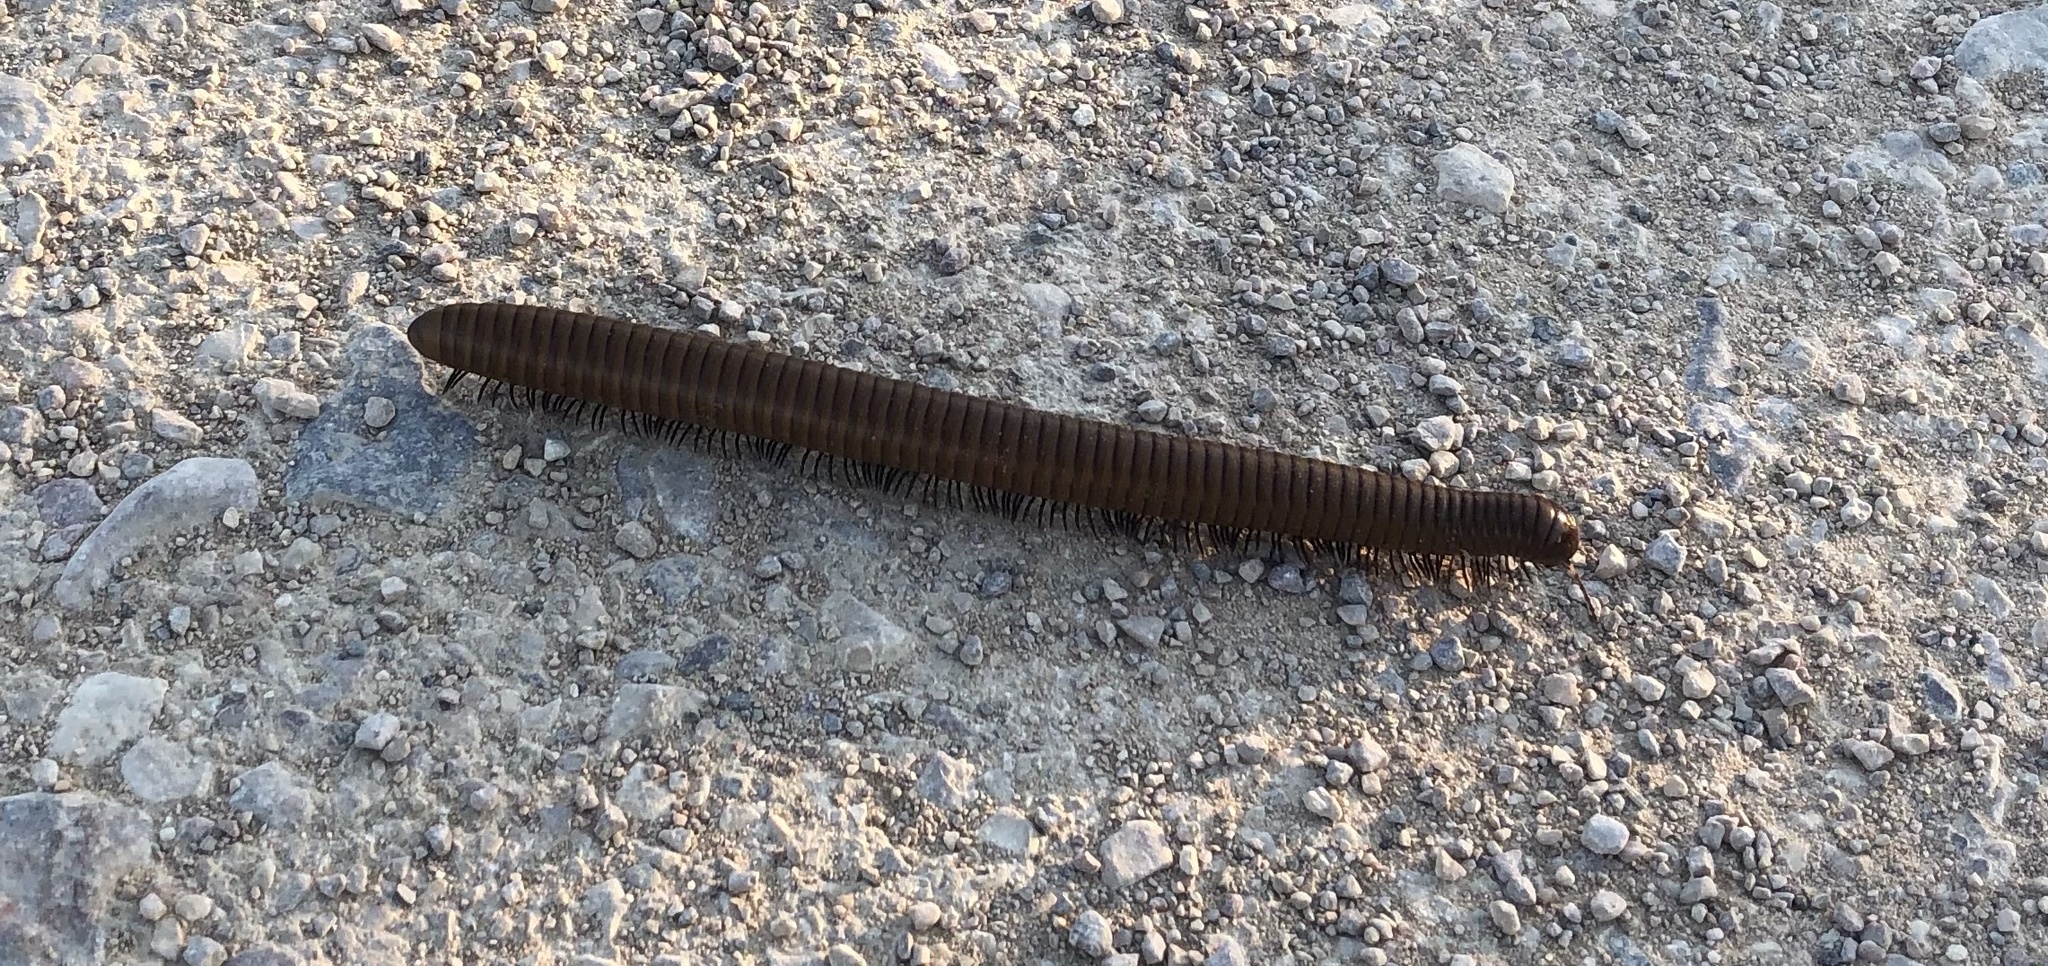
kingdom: Animalia
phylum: Arthropoda
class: Diplopoda
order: Spirostreptida
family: Spirostreptidae
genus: Orthoporus
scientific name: Orthoporus ornatus
